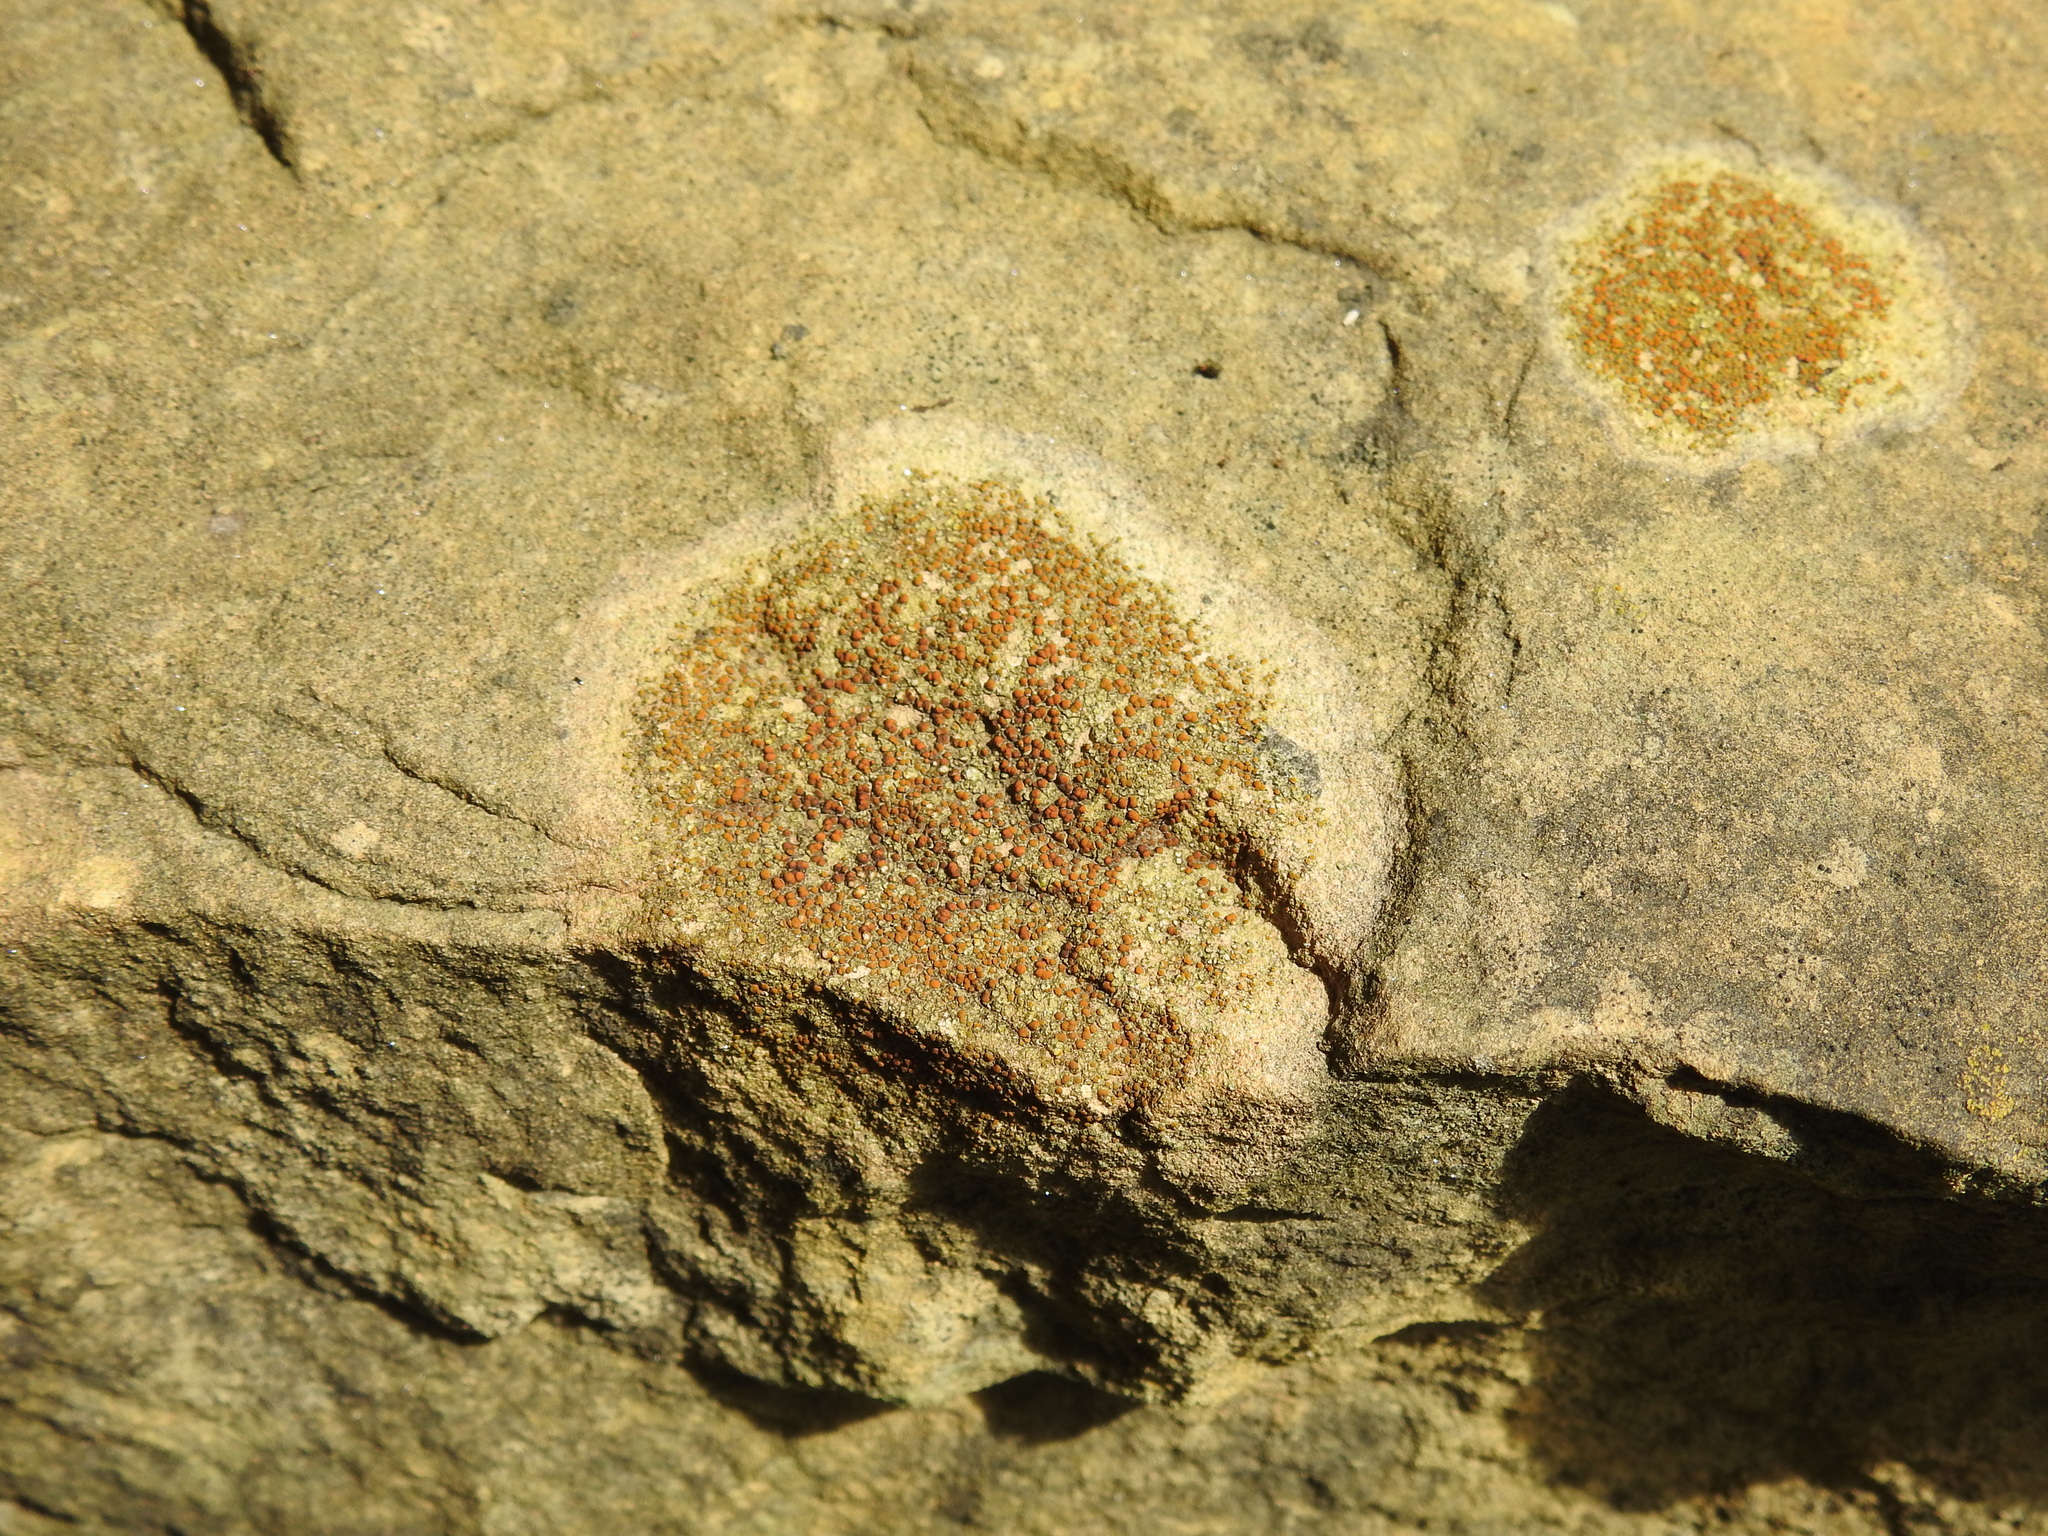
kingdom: Fungi
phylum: Ascomycota
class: Lecanoromycetes
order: Teloschistales
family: Teloschistaceae
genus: Gyalolechia
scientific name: Gyalolechia flavovirescens
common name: Sulphur firedot
